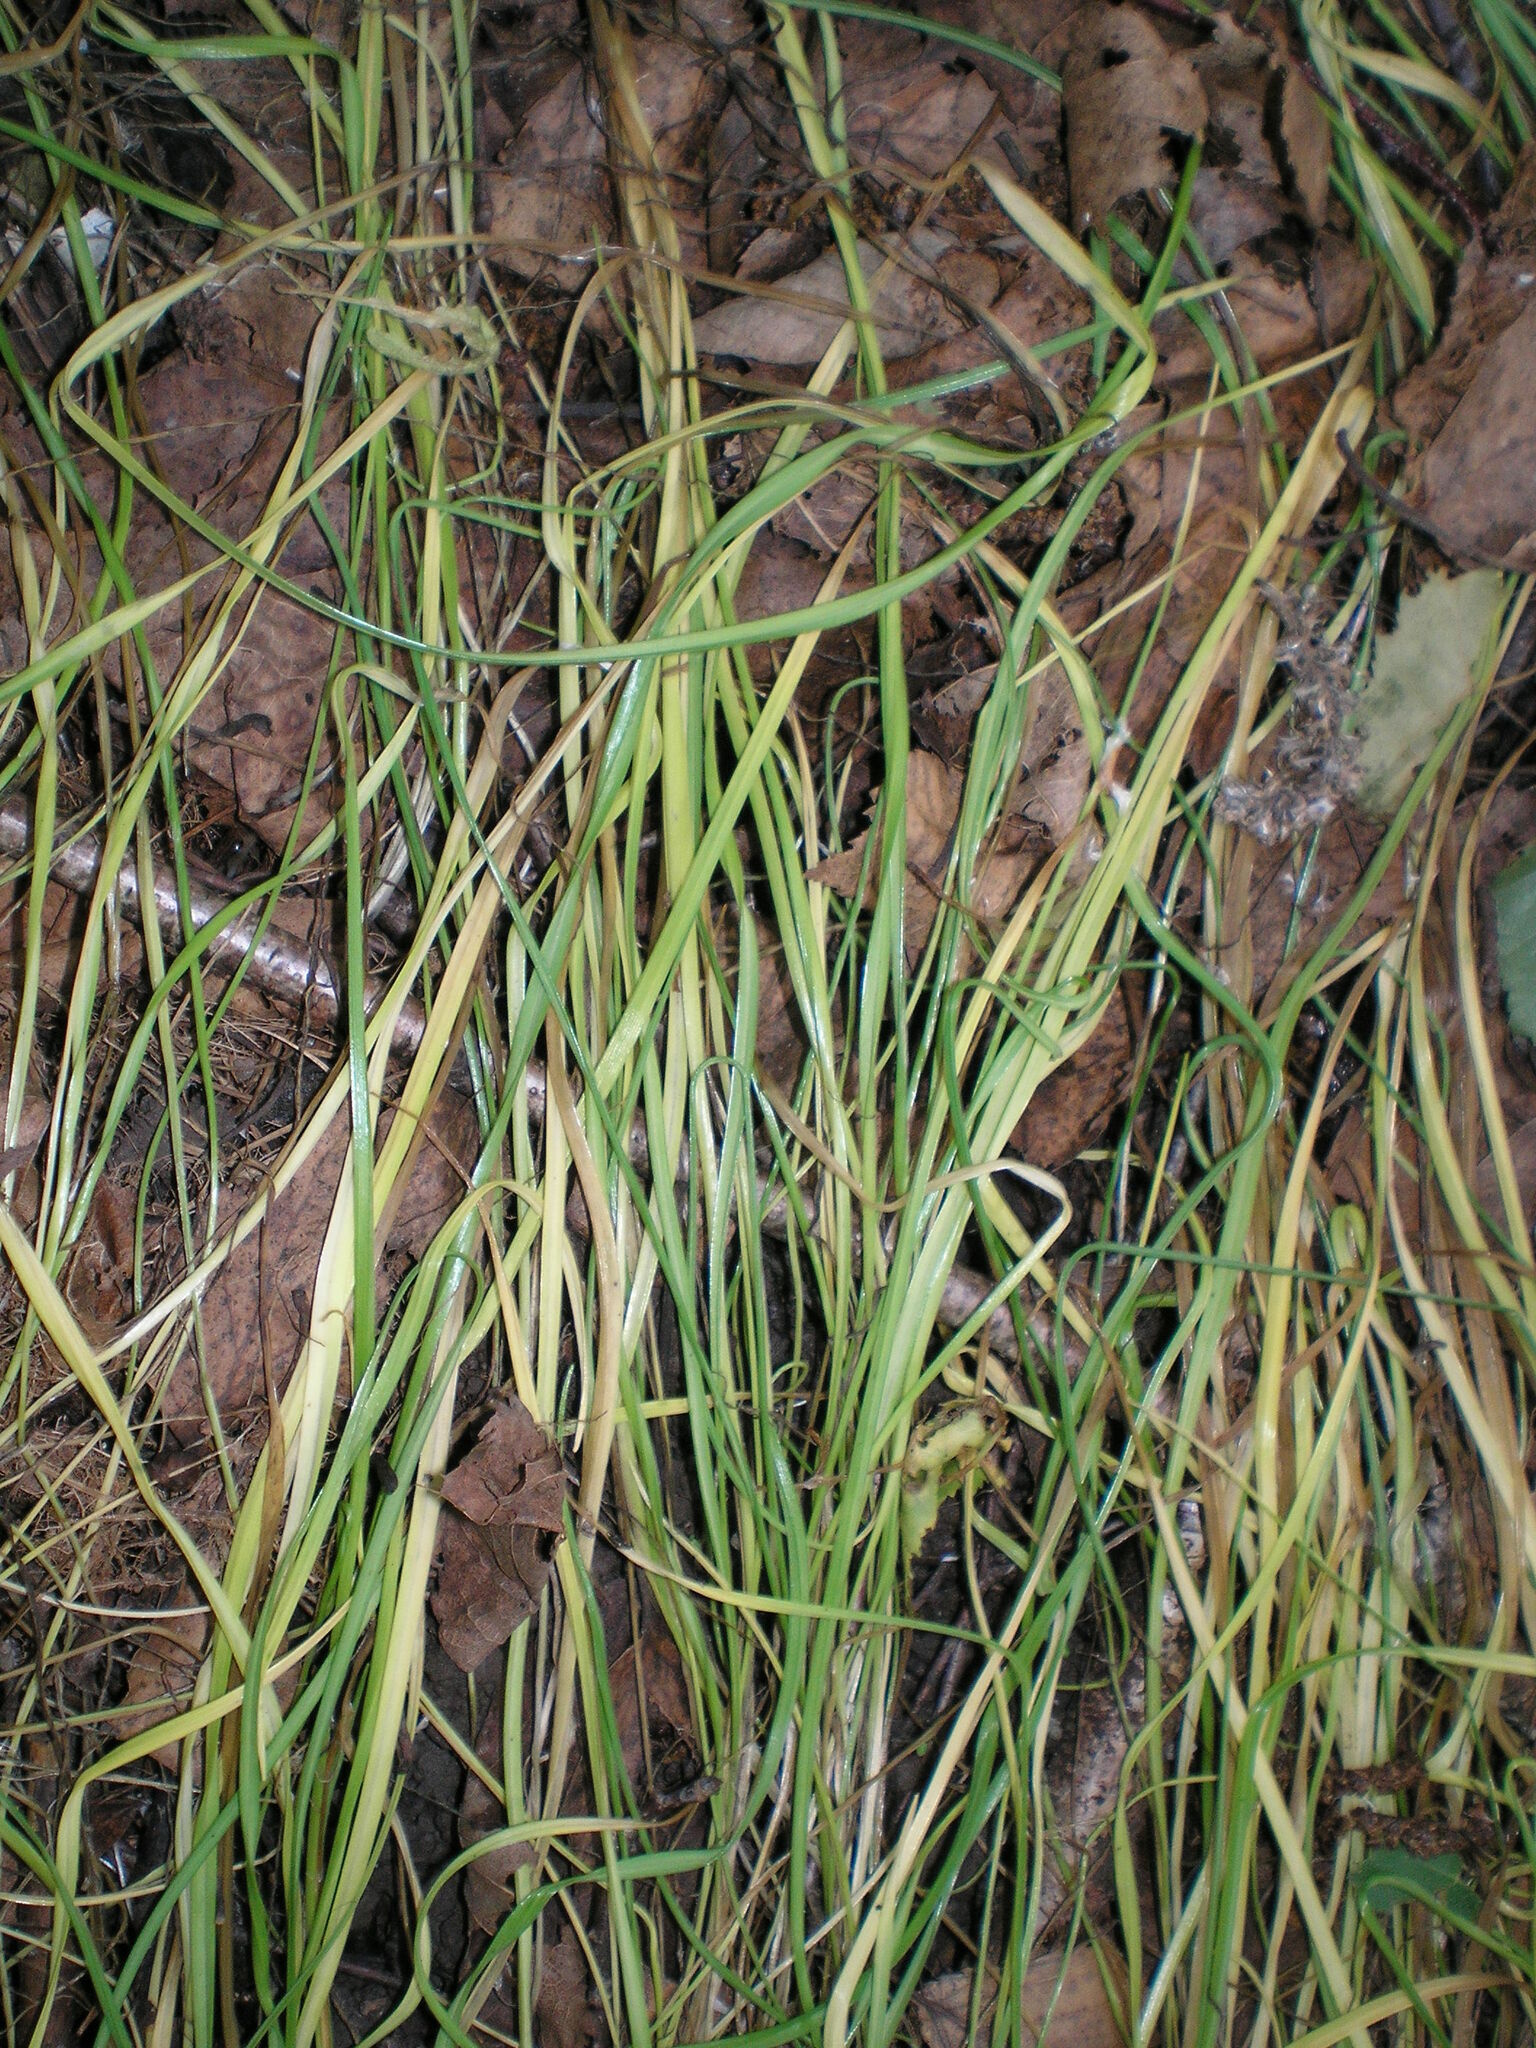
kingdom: Plantae
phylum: Tracheophyta
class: Liliopsida
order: Asparagales
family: Amaryllidaceae
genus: Allium
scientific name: Allium oleraceum
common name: Field garlic
